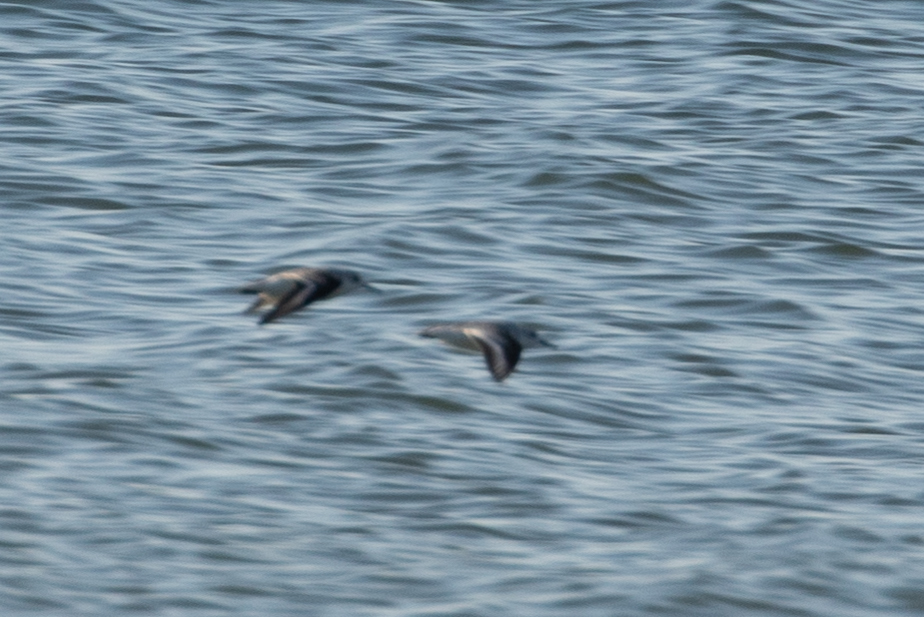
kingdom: Animalia
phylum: Chordata
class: Aves
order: Charadriiformes
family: Scolopacidae
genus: Calidris
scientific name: Calidris alba
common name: Sanderling
